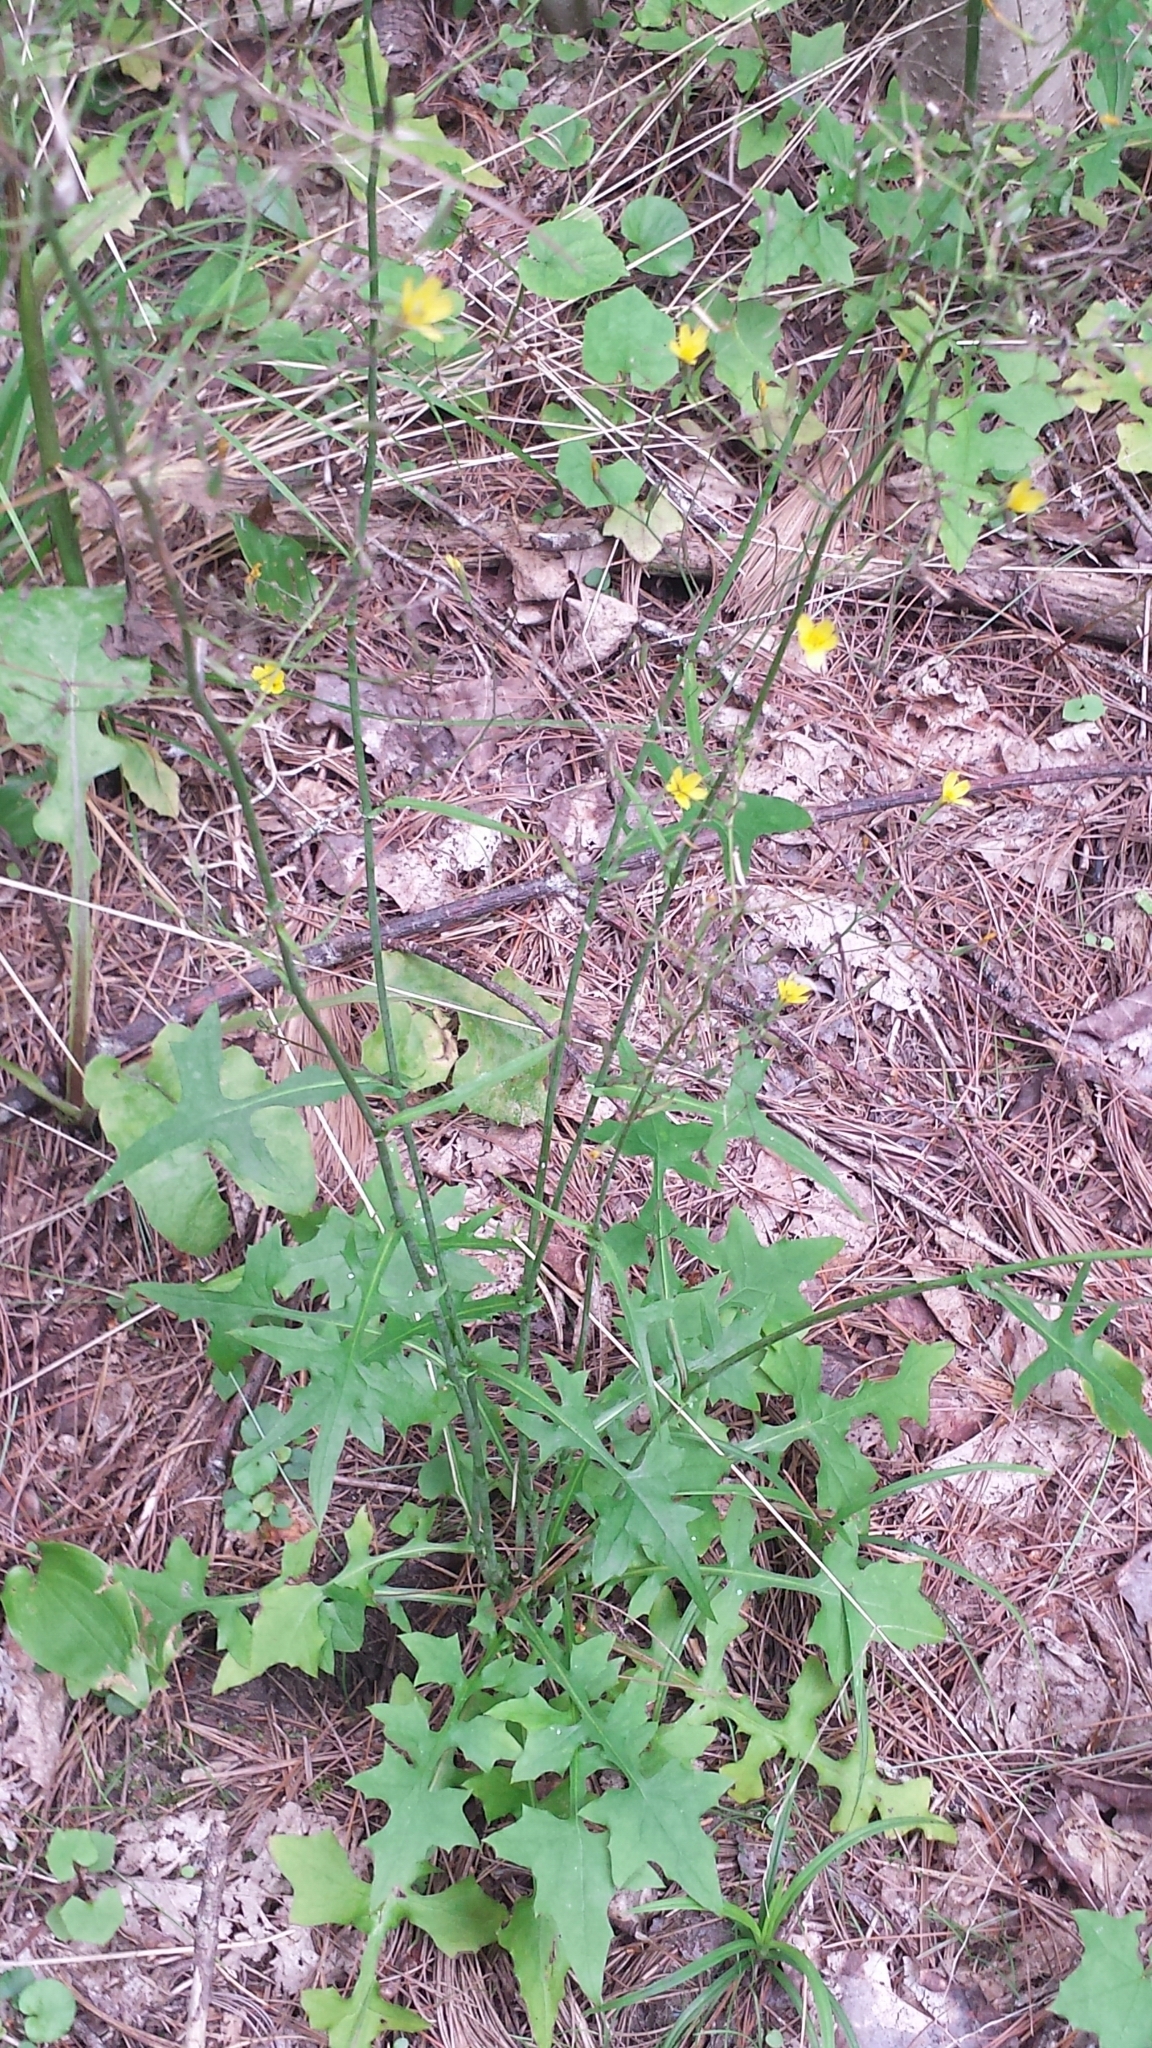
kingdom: Plantae
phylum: Tracheophyta
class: Magnoliopsida
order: Asterales
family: Asteraceae
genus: Mycelis
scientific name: Mycelis muralis
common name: Wall lettuce
